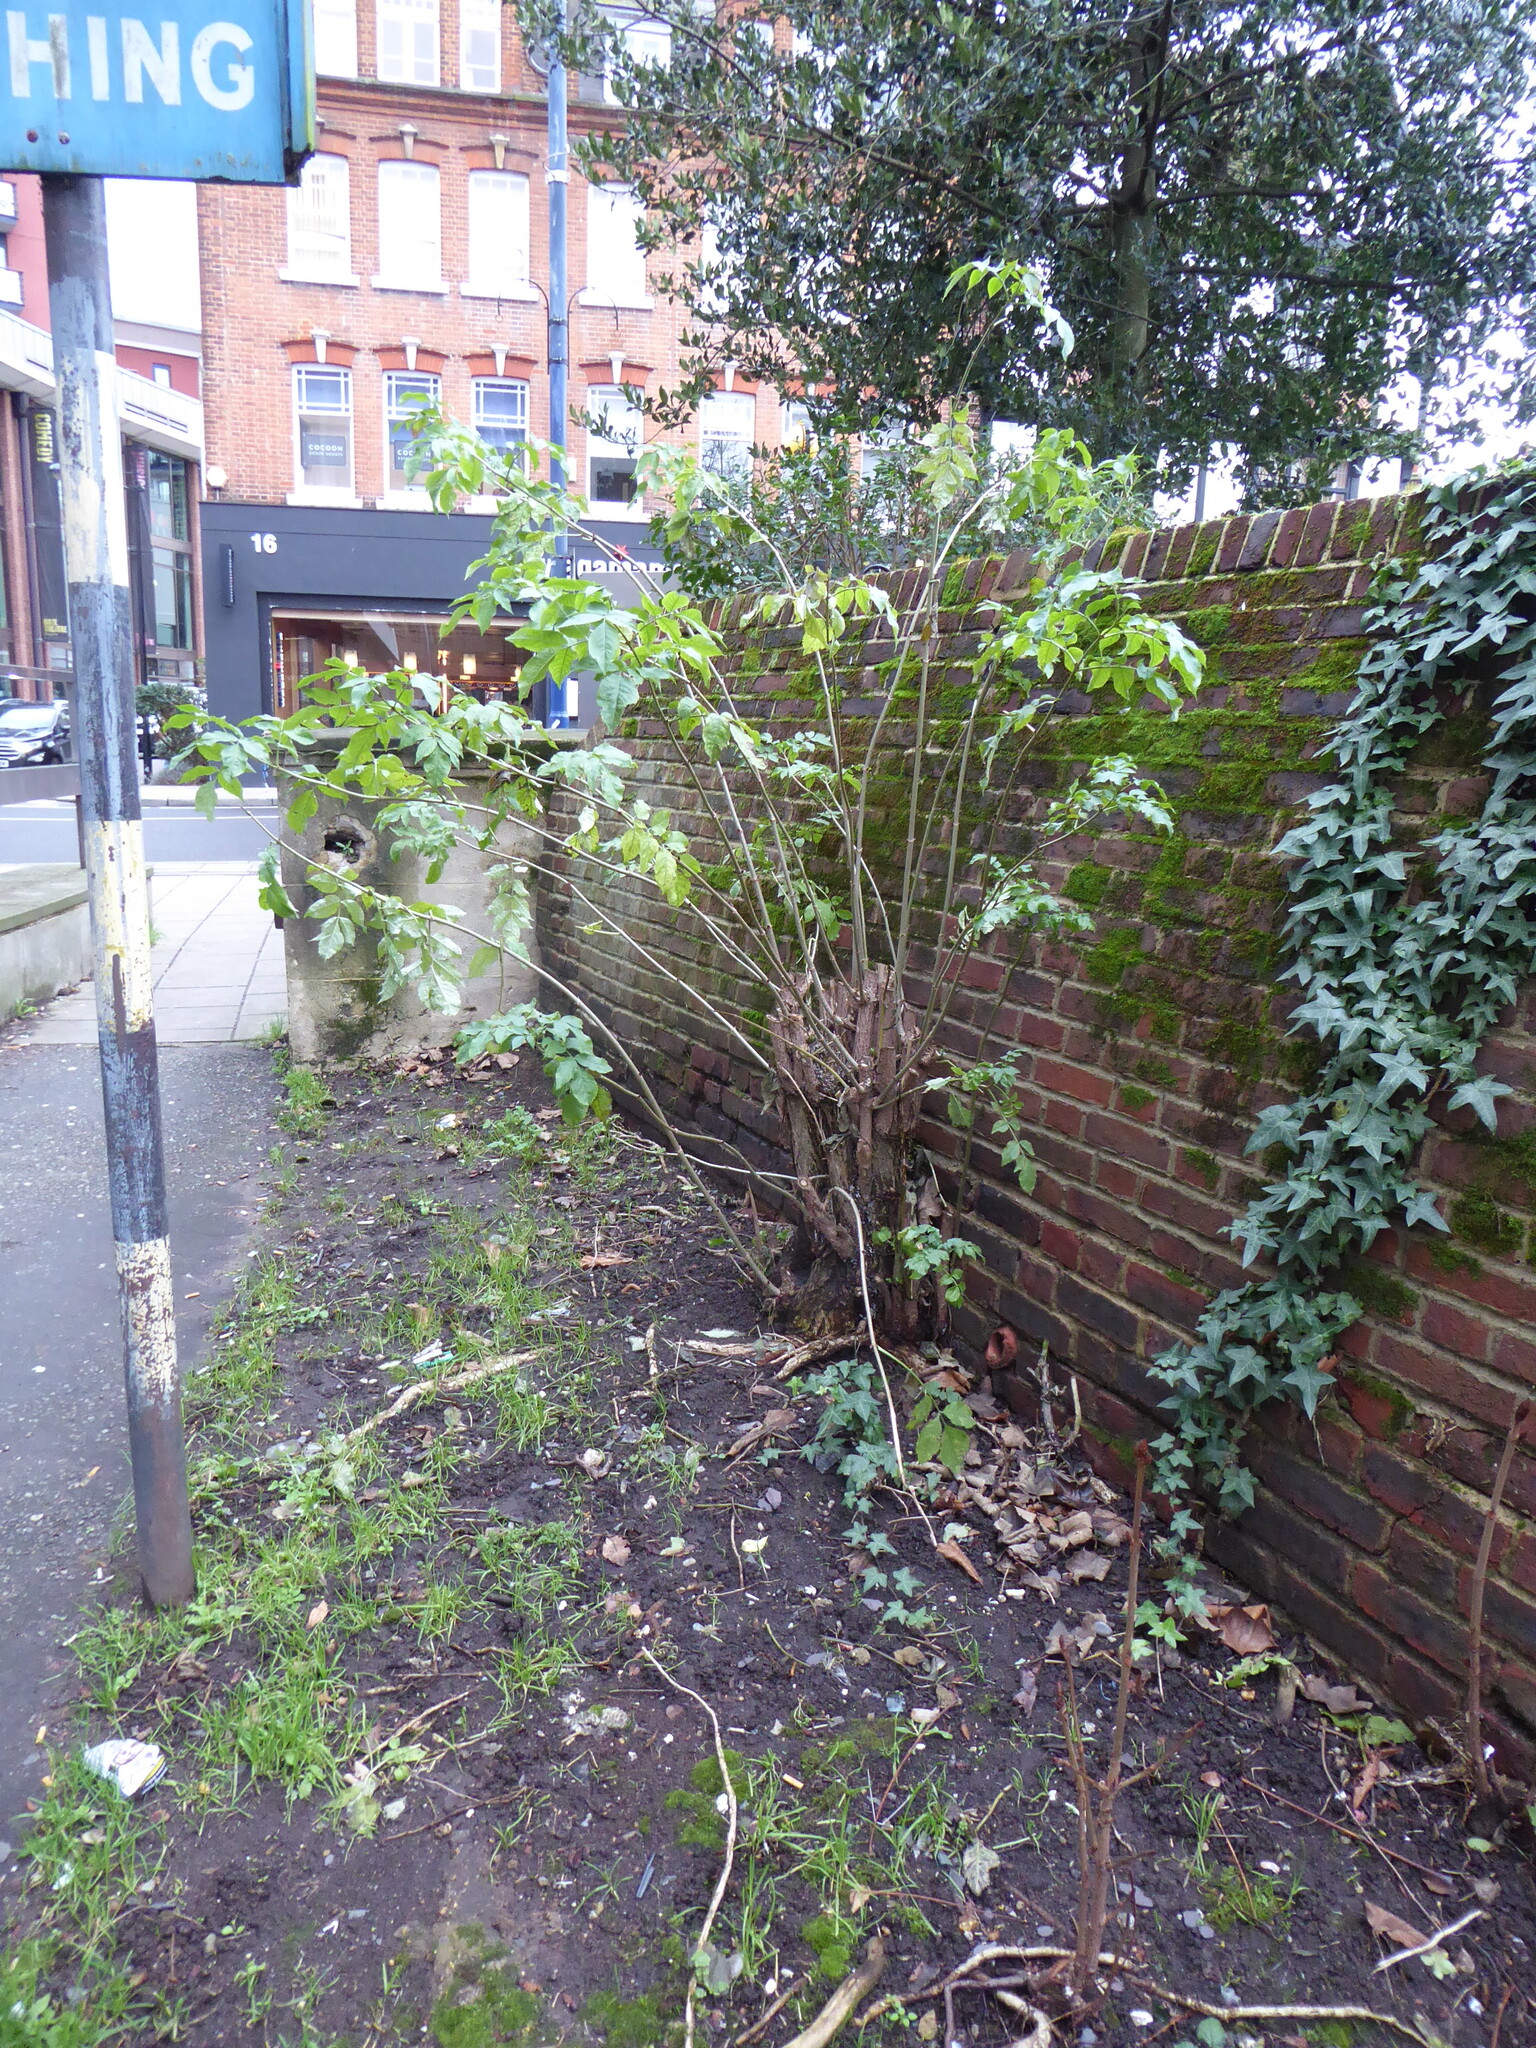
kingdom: Plantae
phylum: Tracheophyta
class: Magnoliopsida
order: Dipsacales
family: Viburnaceae
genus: Sambucus
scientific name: Sambucus nigra
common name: Elder
